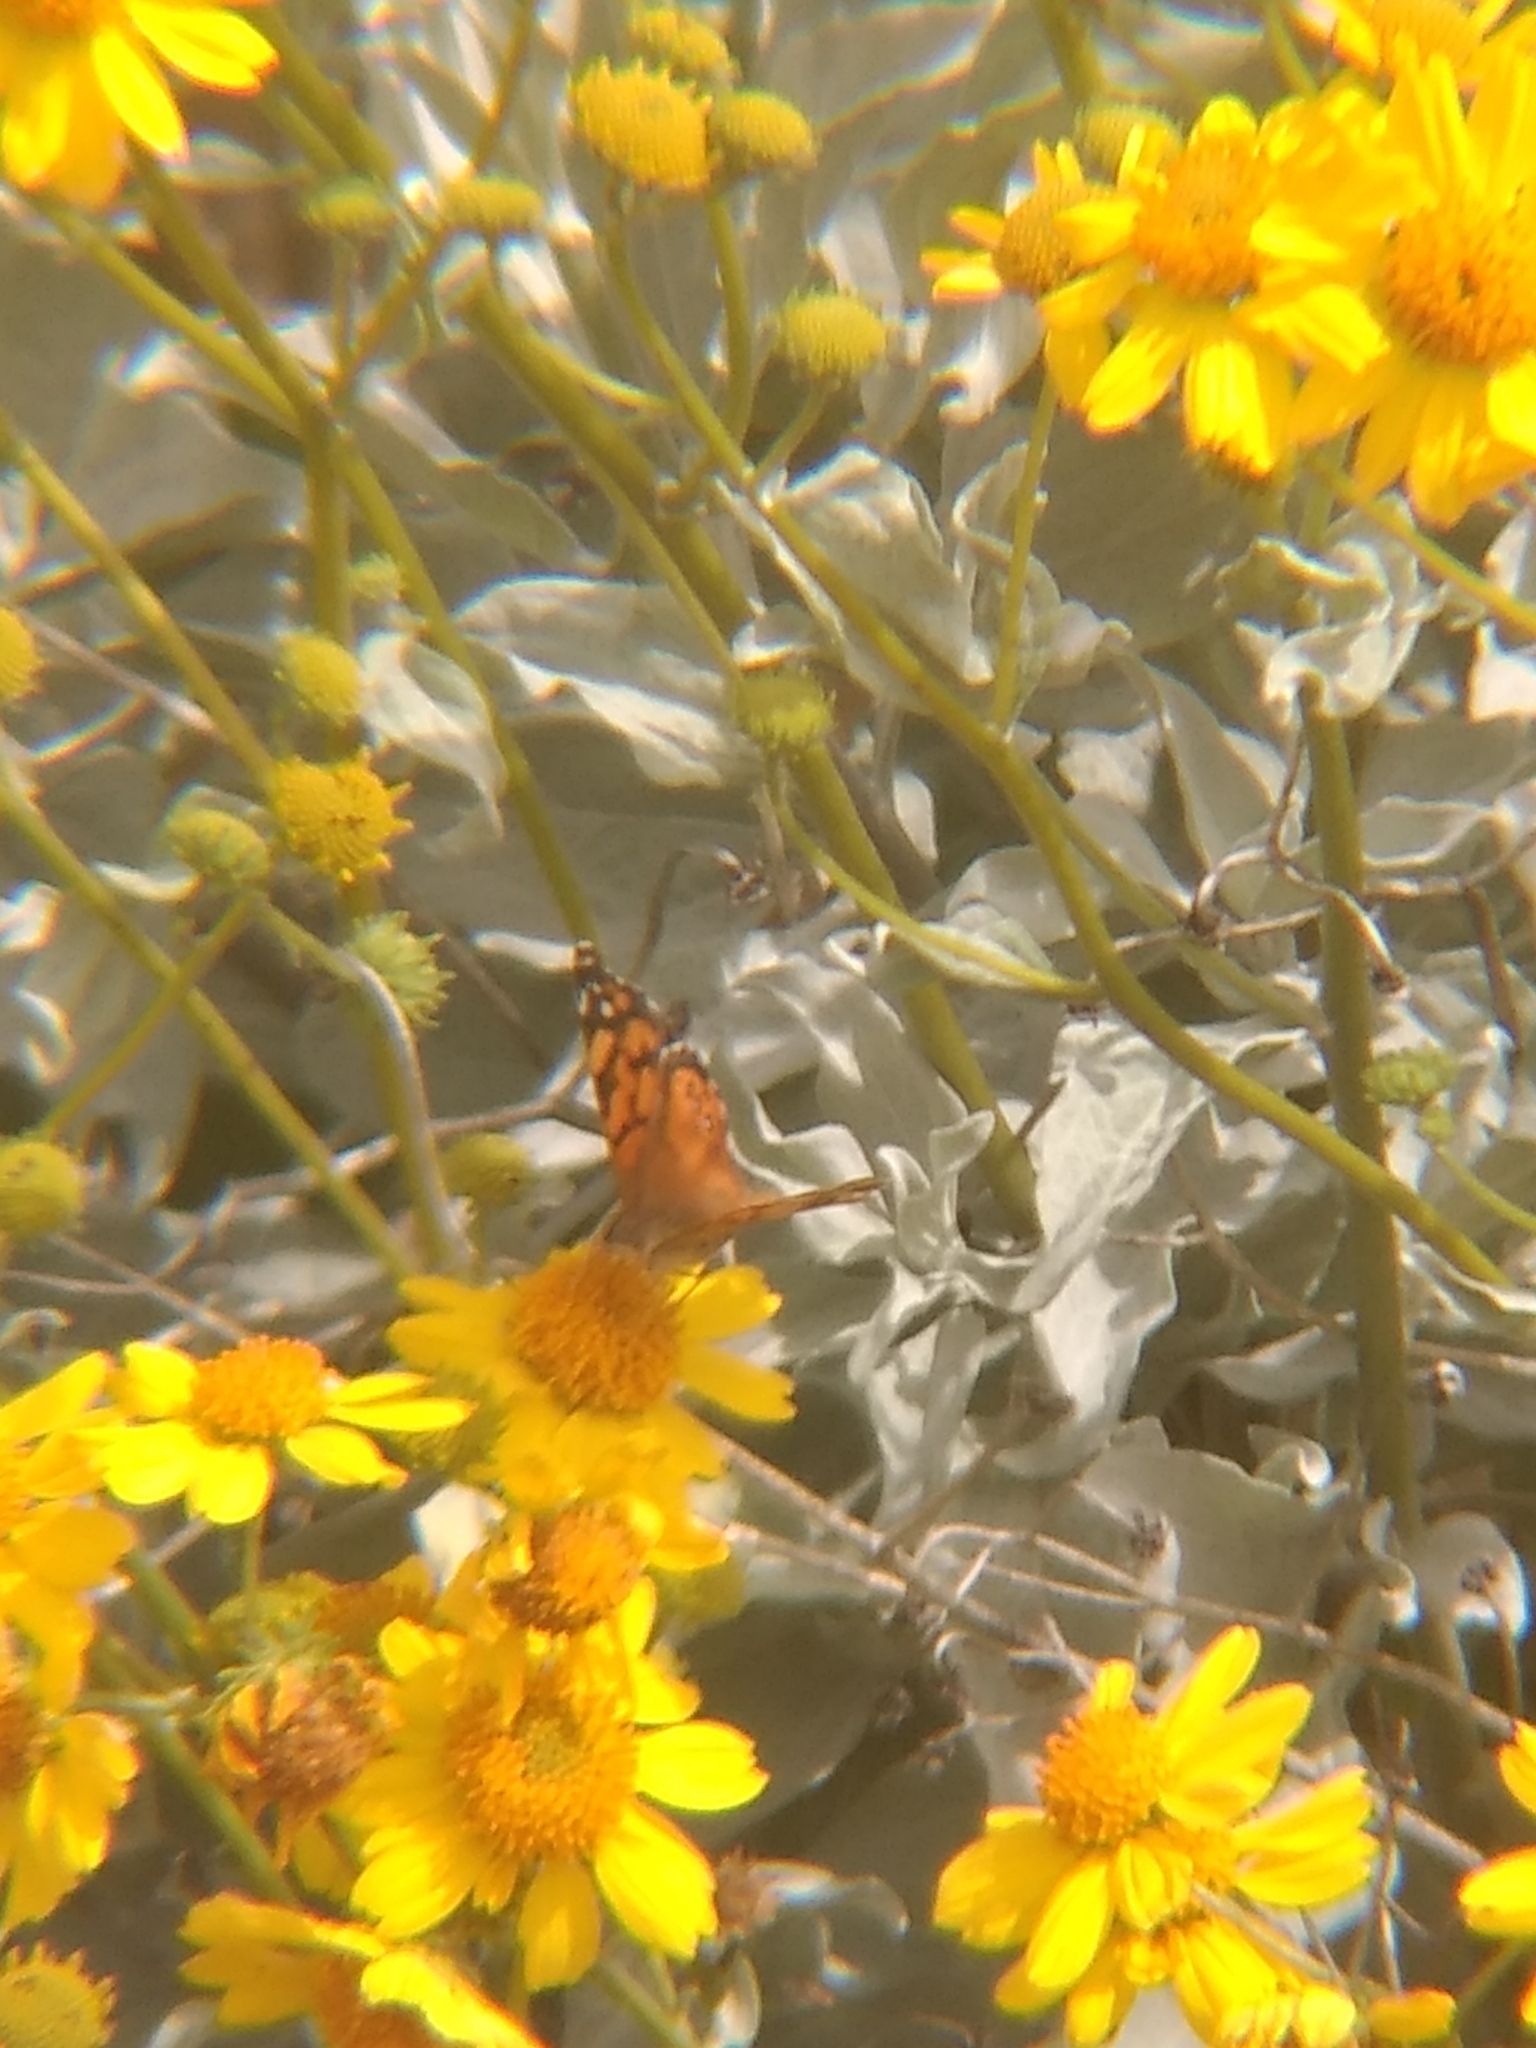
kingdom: Animalia
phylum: Arthropoda
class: Insecta
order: Lepidoptera
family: Nymphalidae
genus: Vanessa
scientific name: Vanessa annabella
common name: West coast lady
